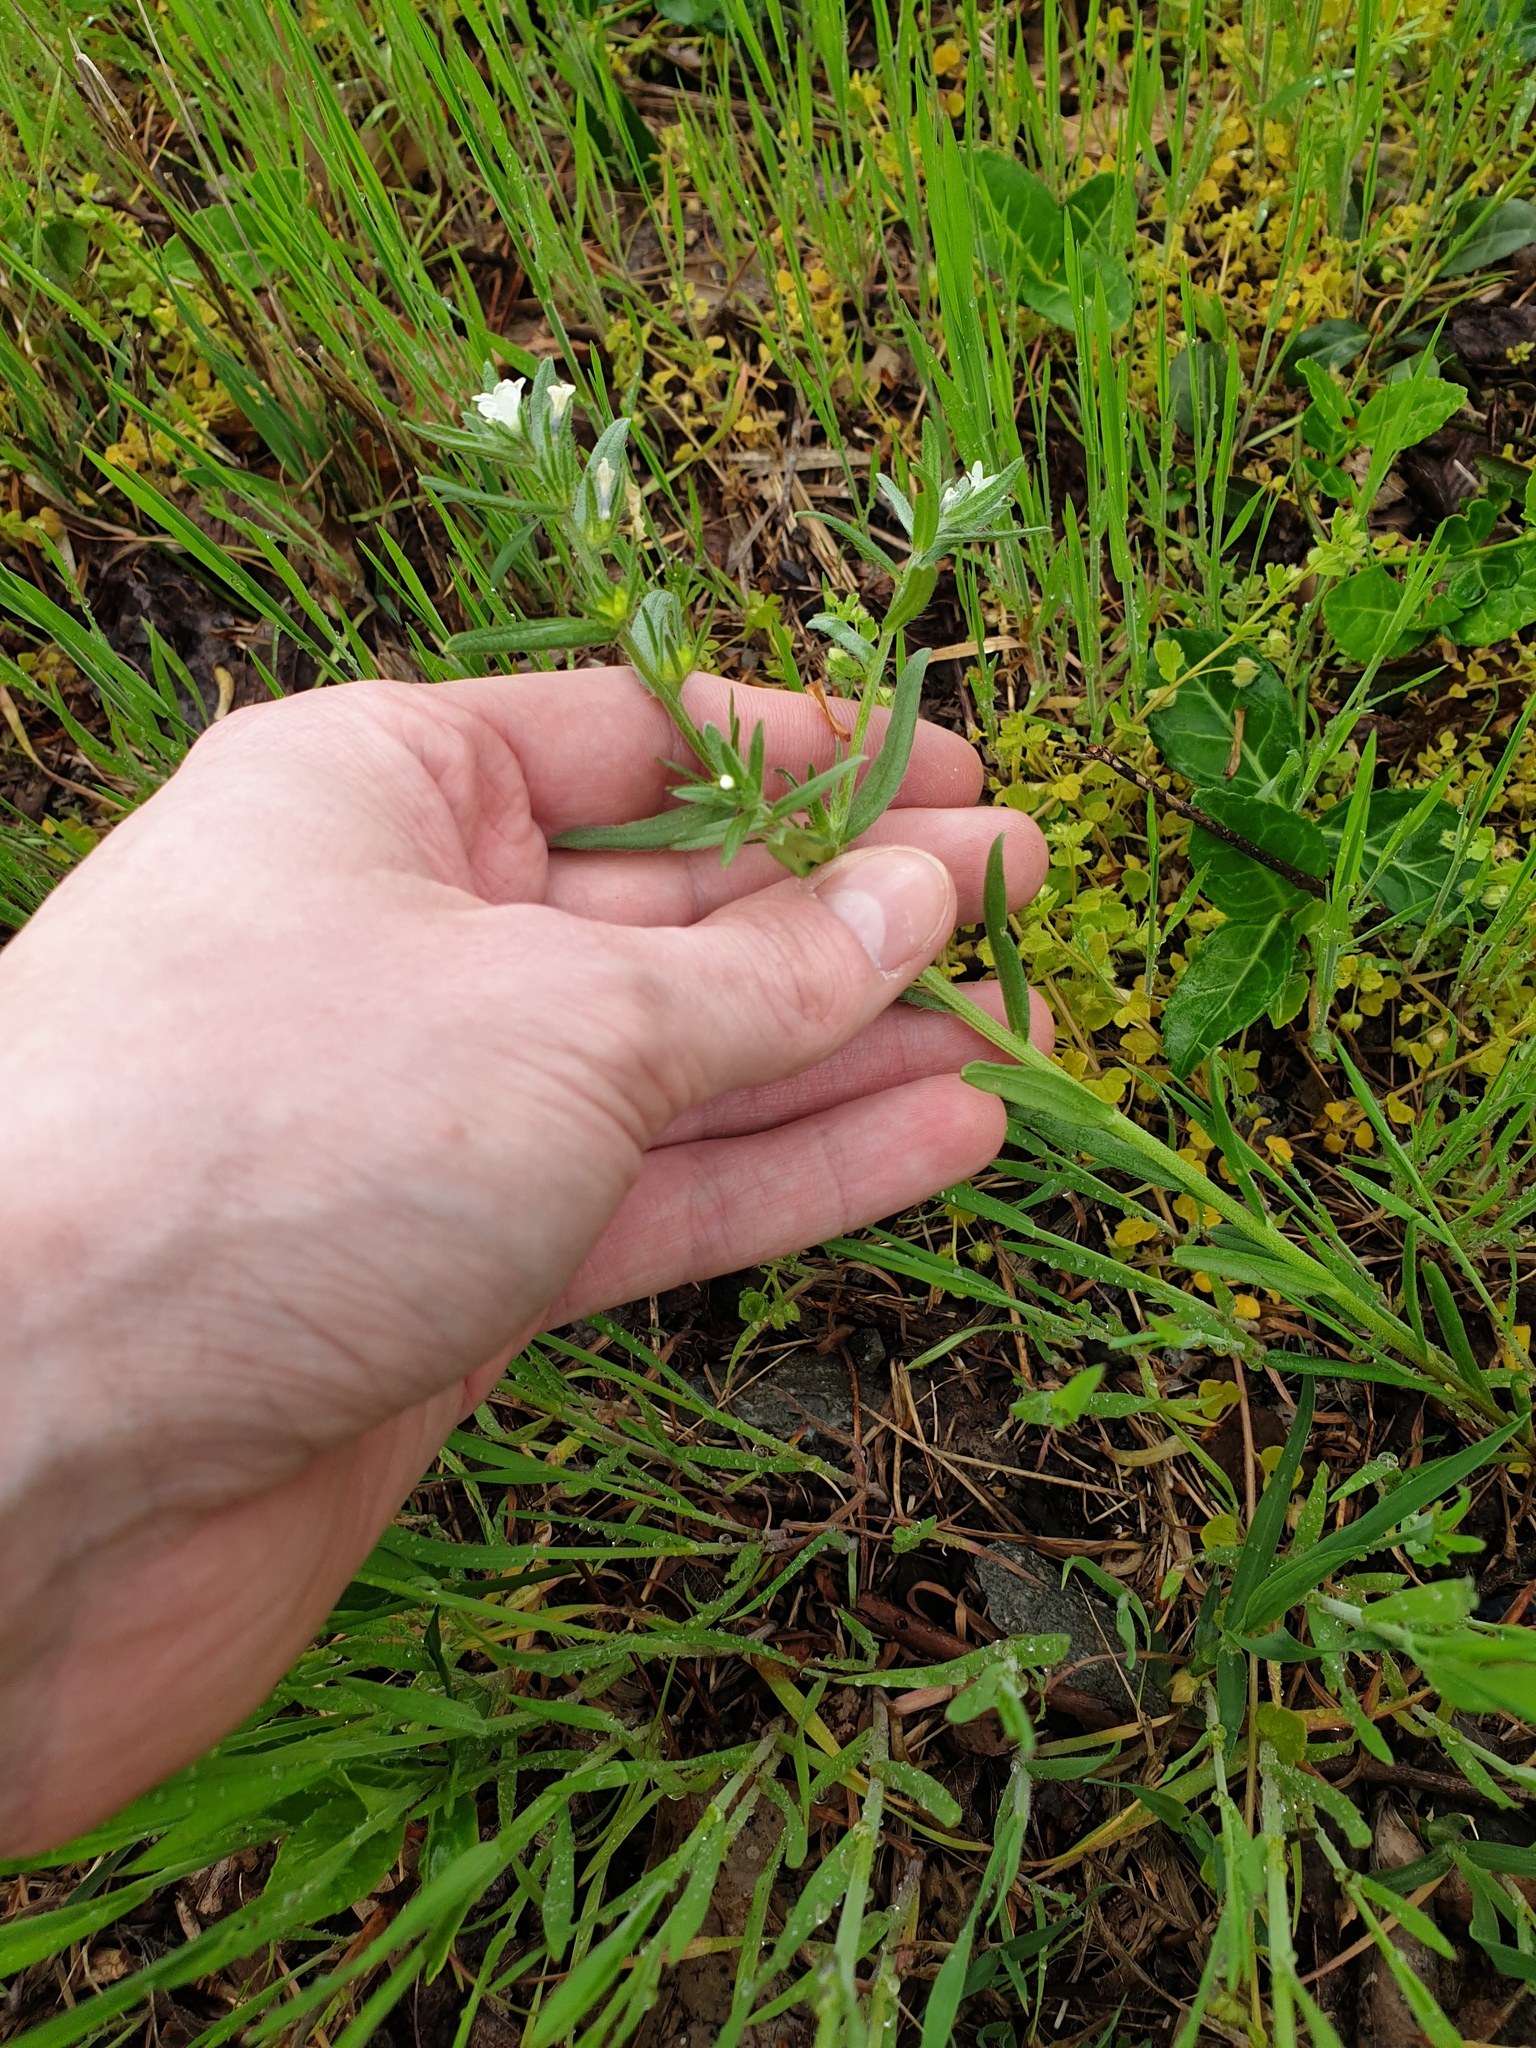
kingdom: Plantae
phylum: Tracheophyta
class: Magnoliopsida
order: Boraginales
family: Boraginaceae
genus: Buglossoides
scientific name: Buglossoides arvensis
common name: Corn gromwell
